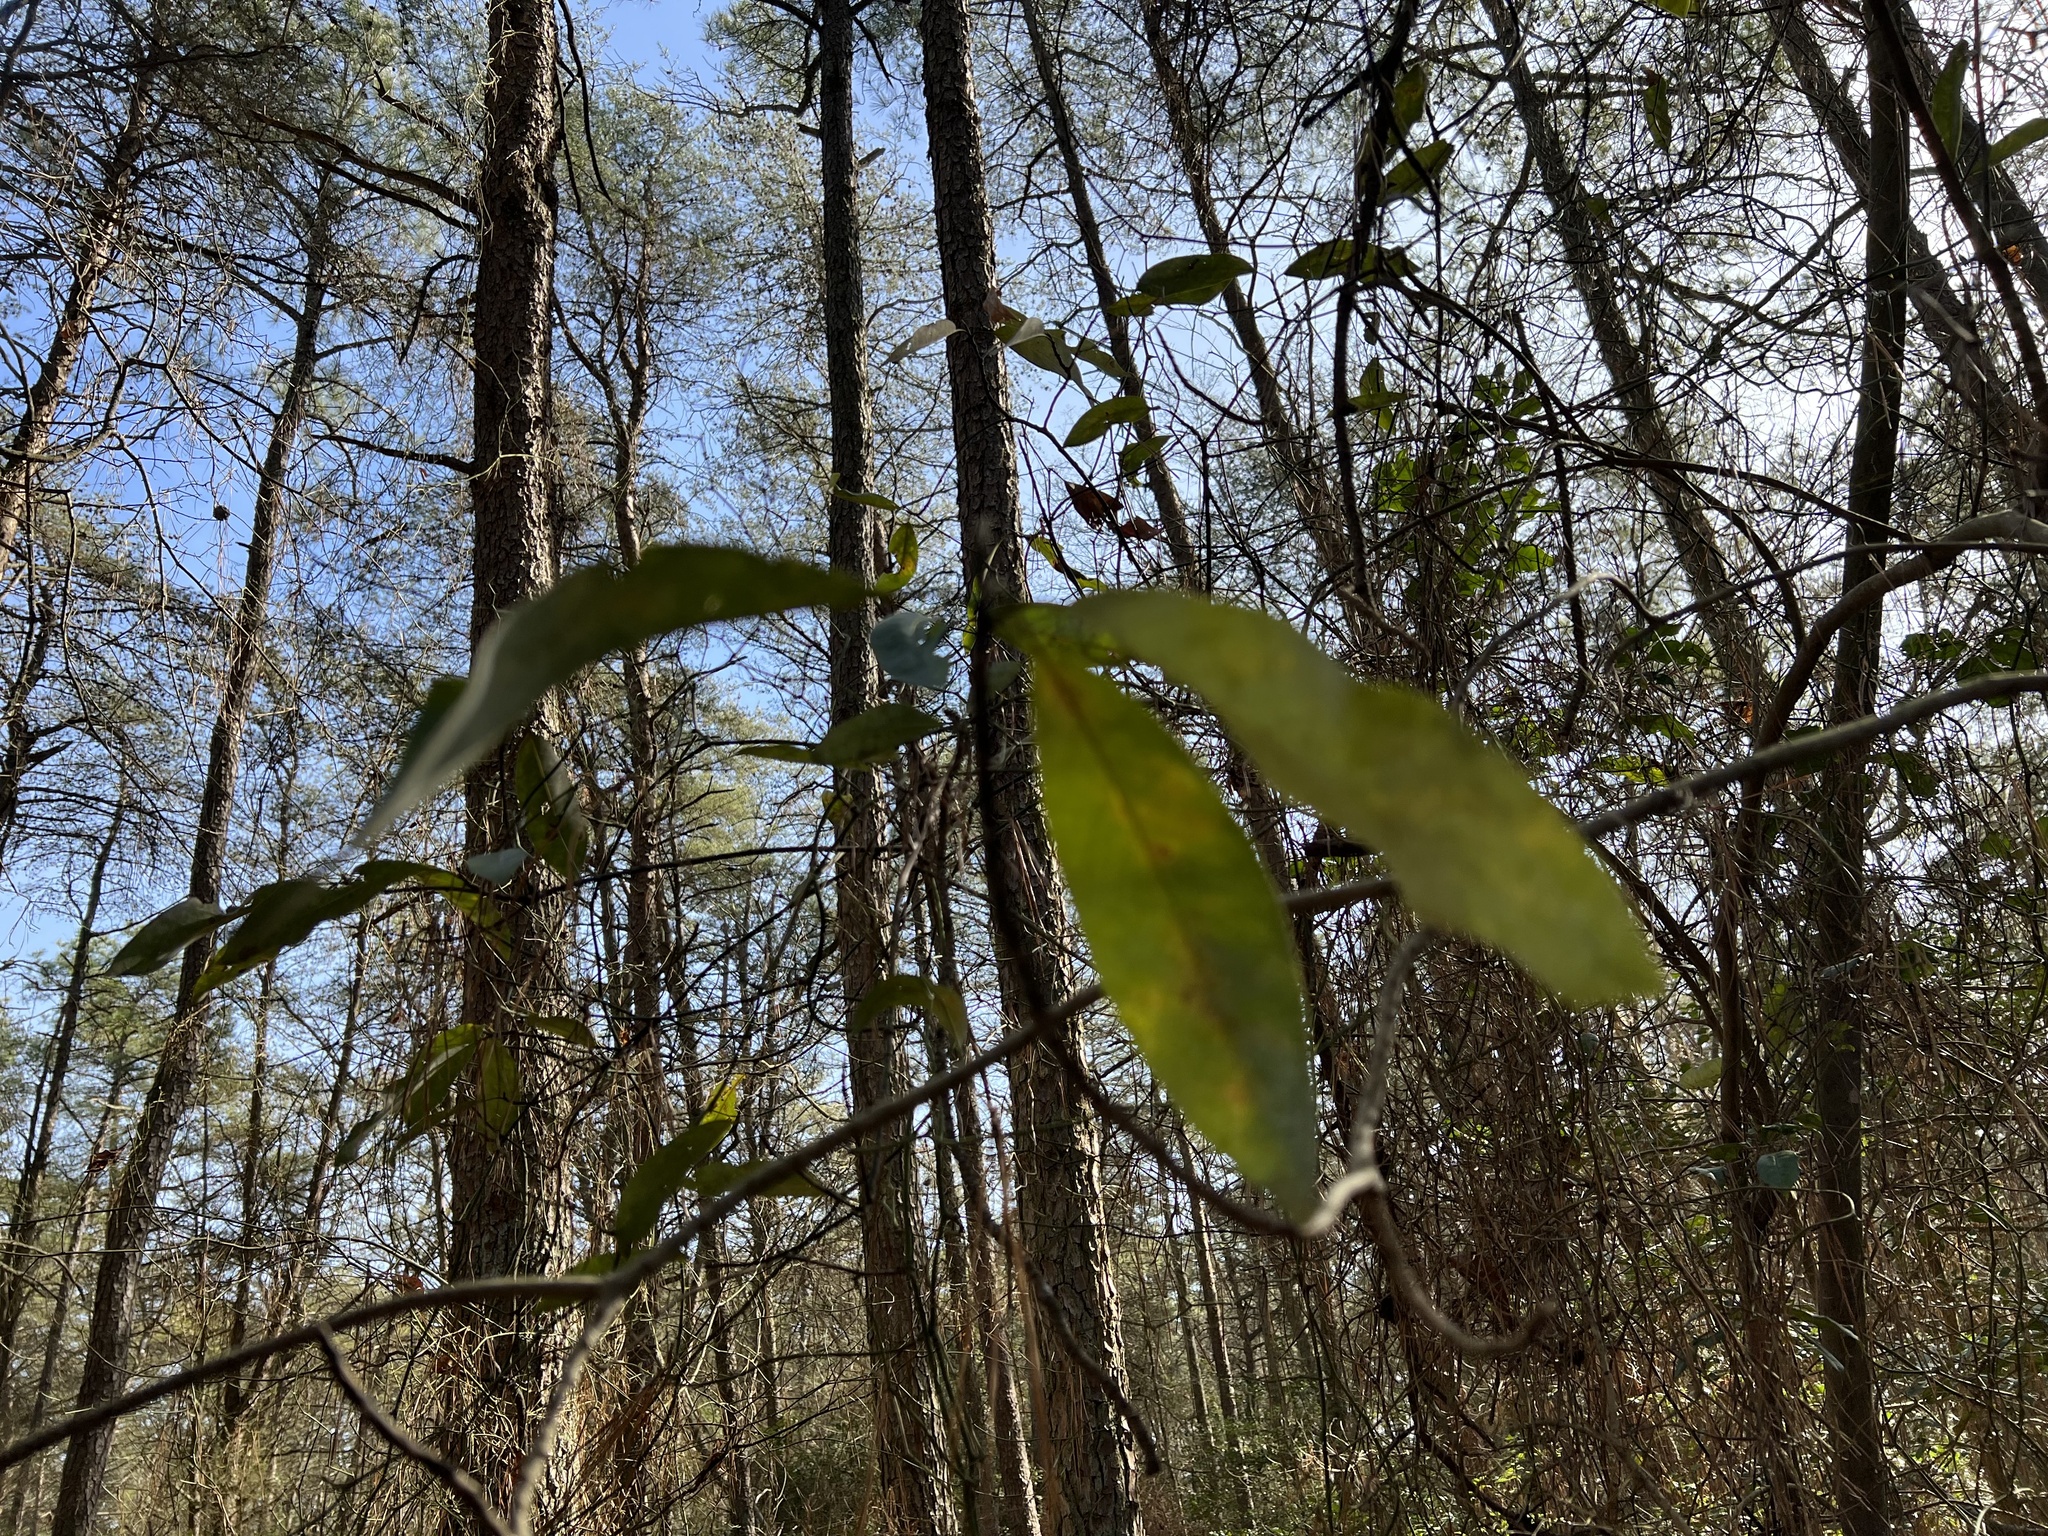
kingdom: Plantae
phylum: Tracheophyta
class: Magnoliopsida
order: Magnoliales
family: Magnoliaceae
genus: Magnolia
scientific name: Magnolia virginiana
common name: Swamp bay
